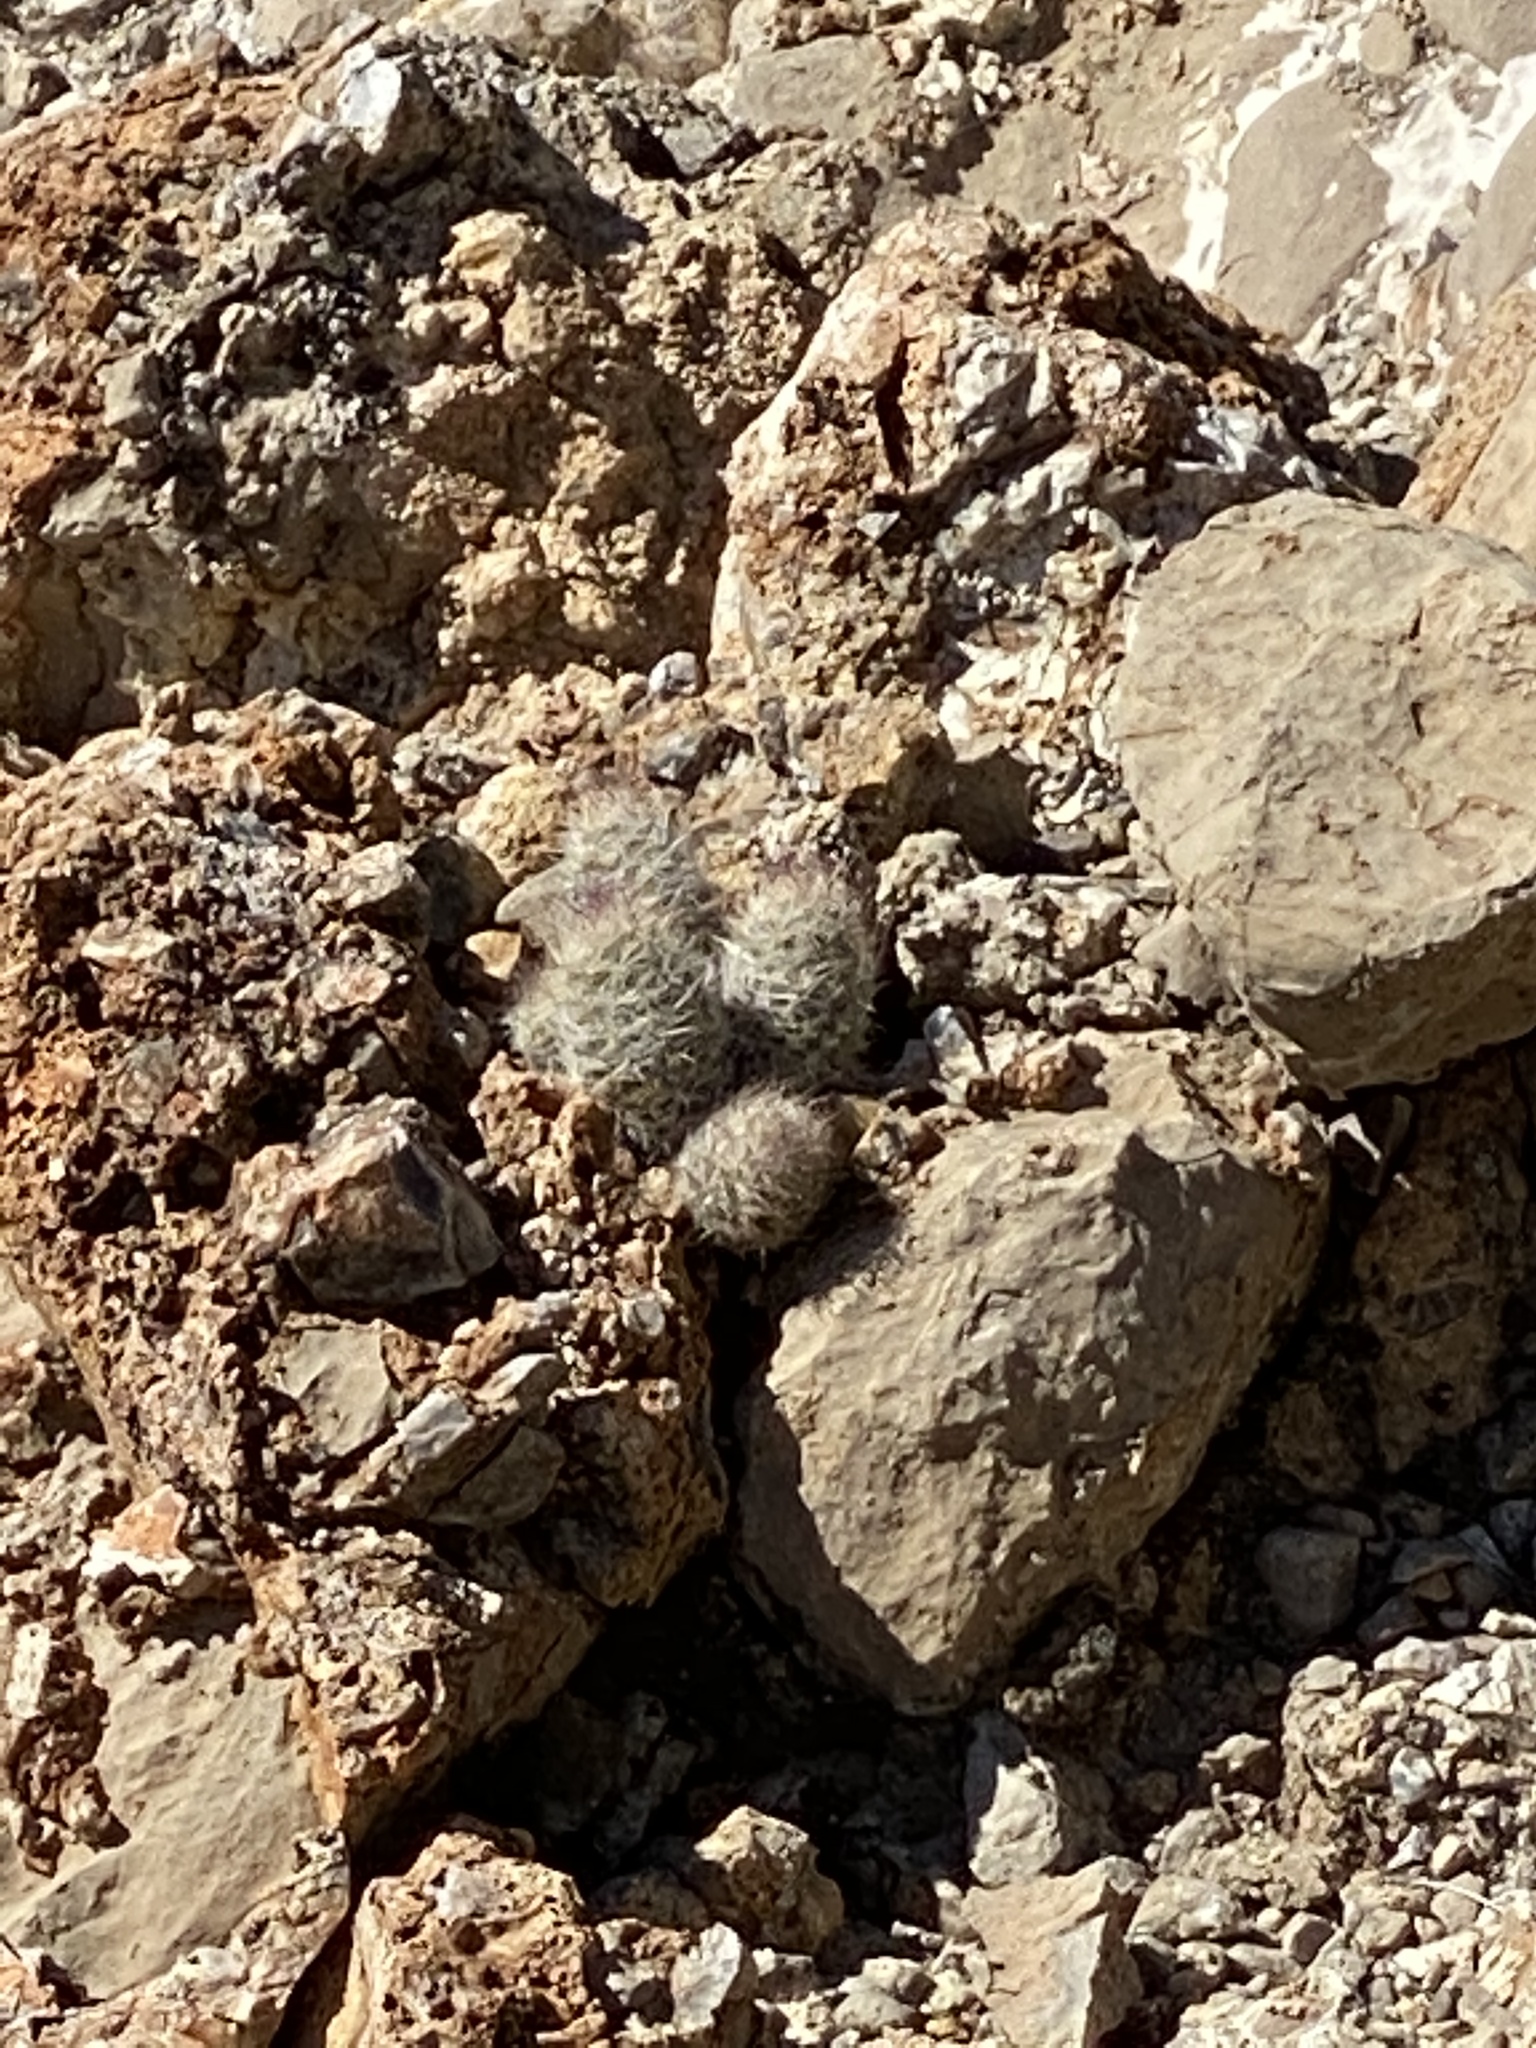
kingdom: Plantae
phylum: Tracheophyta
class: Magnoliopsida
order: Caryophyllales
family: Cactaceae
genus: Pelecyphora
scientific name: Pelecyphora tuberculosa
